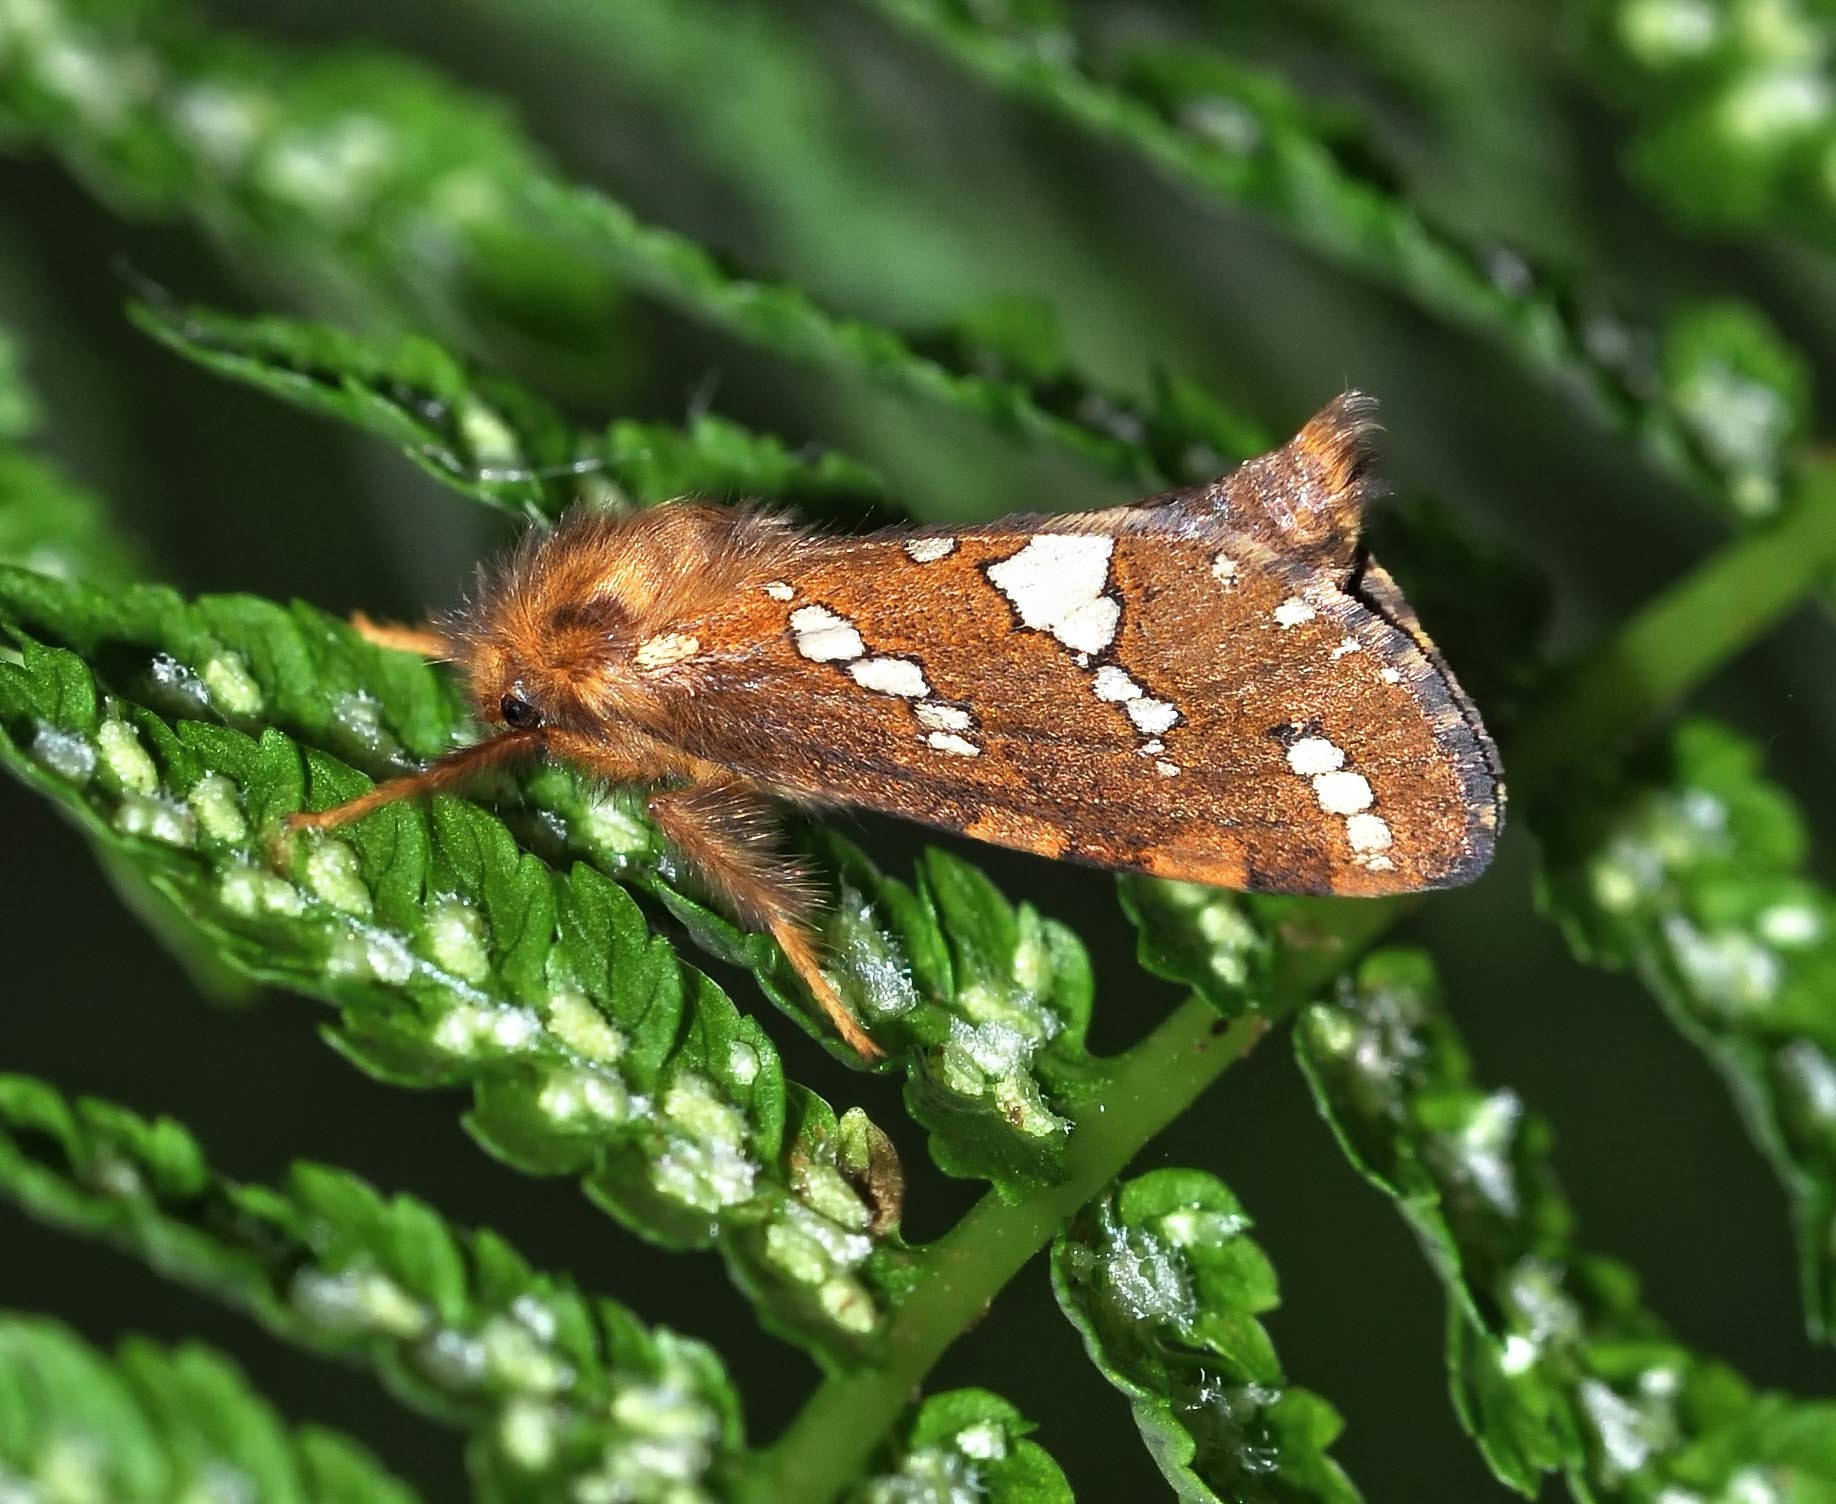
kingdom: Animalia
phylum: Arthropoda
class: Insecta
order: Lepidoptera
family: Hepialidae
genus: Phymatopus
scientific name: Phymatopus hecta
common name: Gold swift
